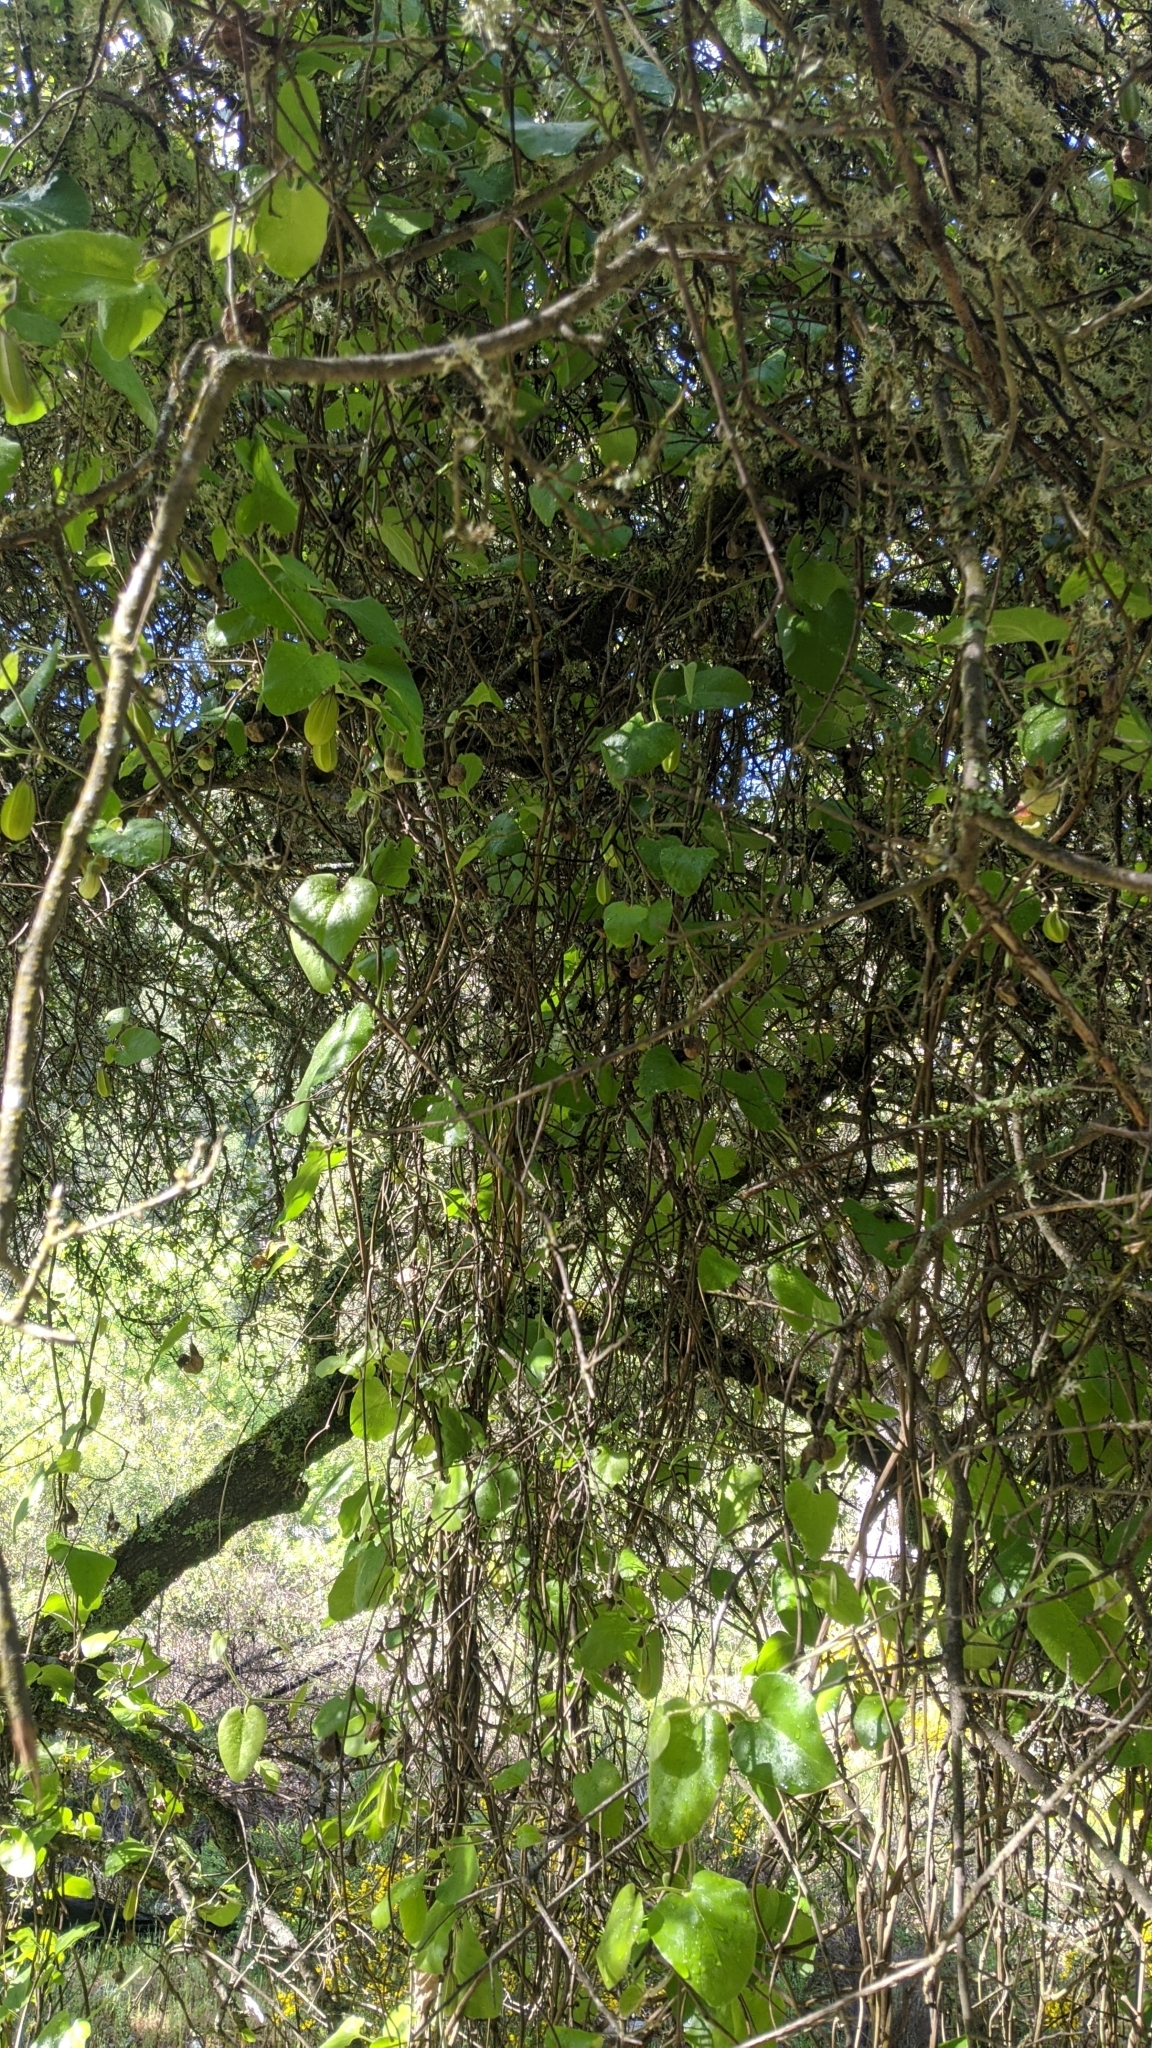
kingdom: Plantae
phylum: Tracheophyta
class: Magnoliopsida
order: Piperales
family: Aristolochiaceae
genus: Isotrema
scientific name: Isotrema californicum
